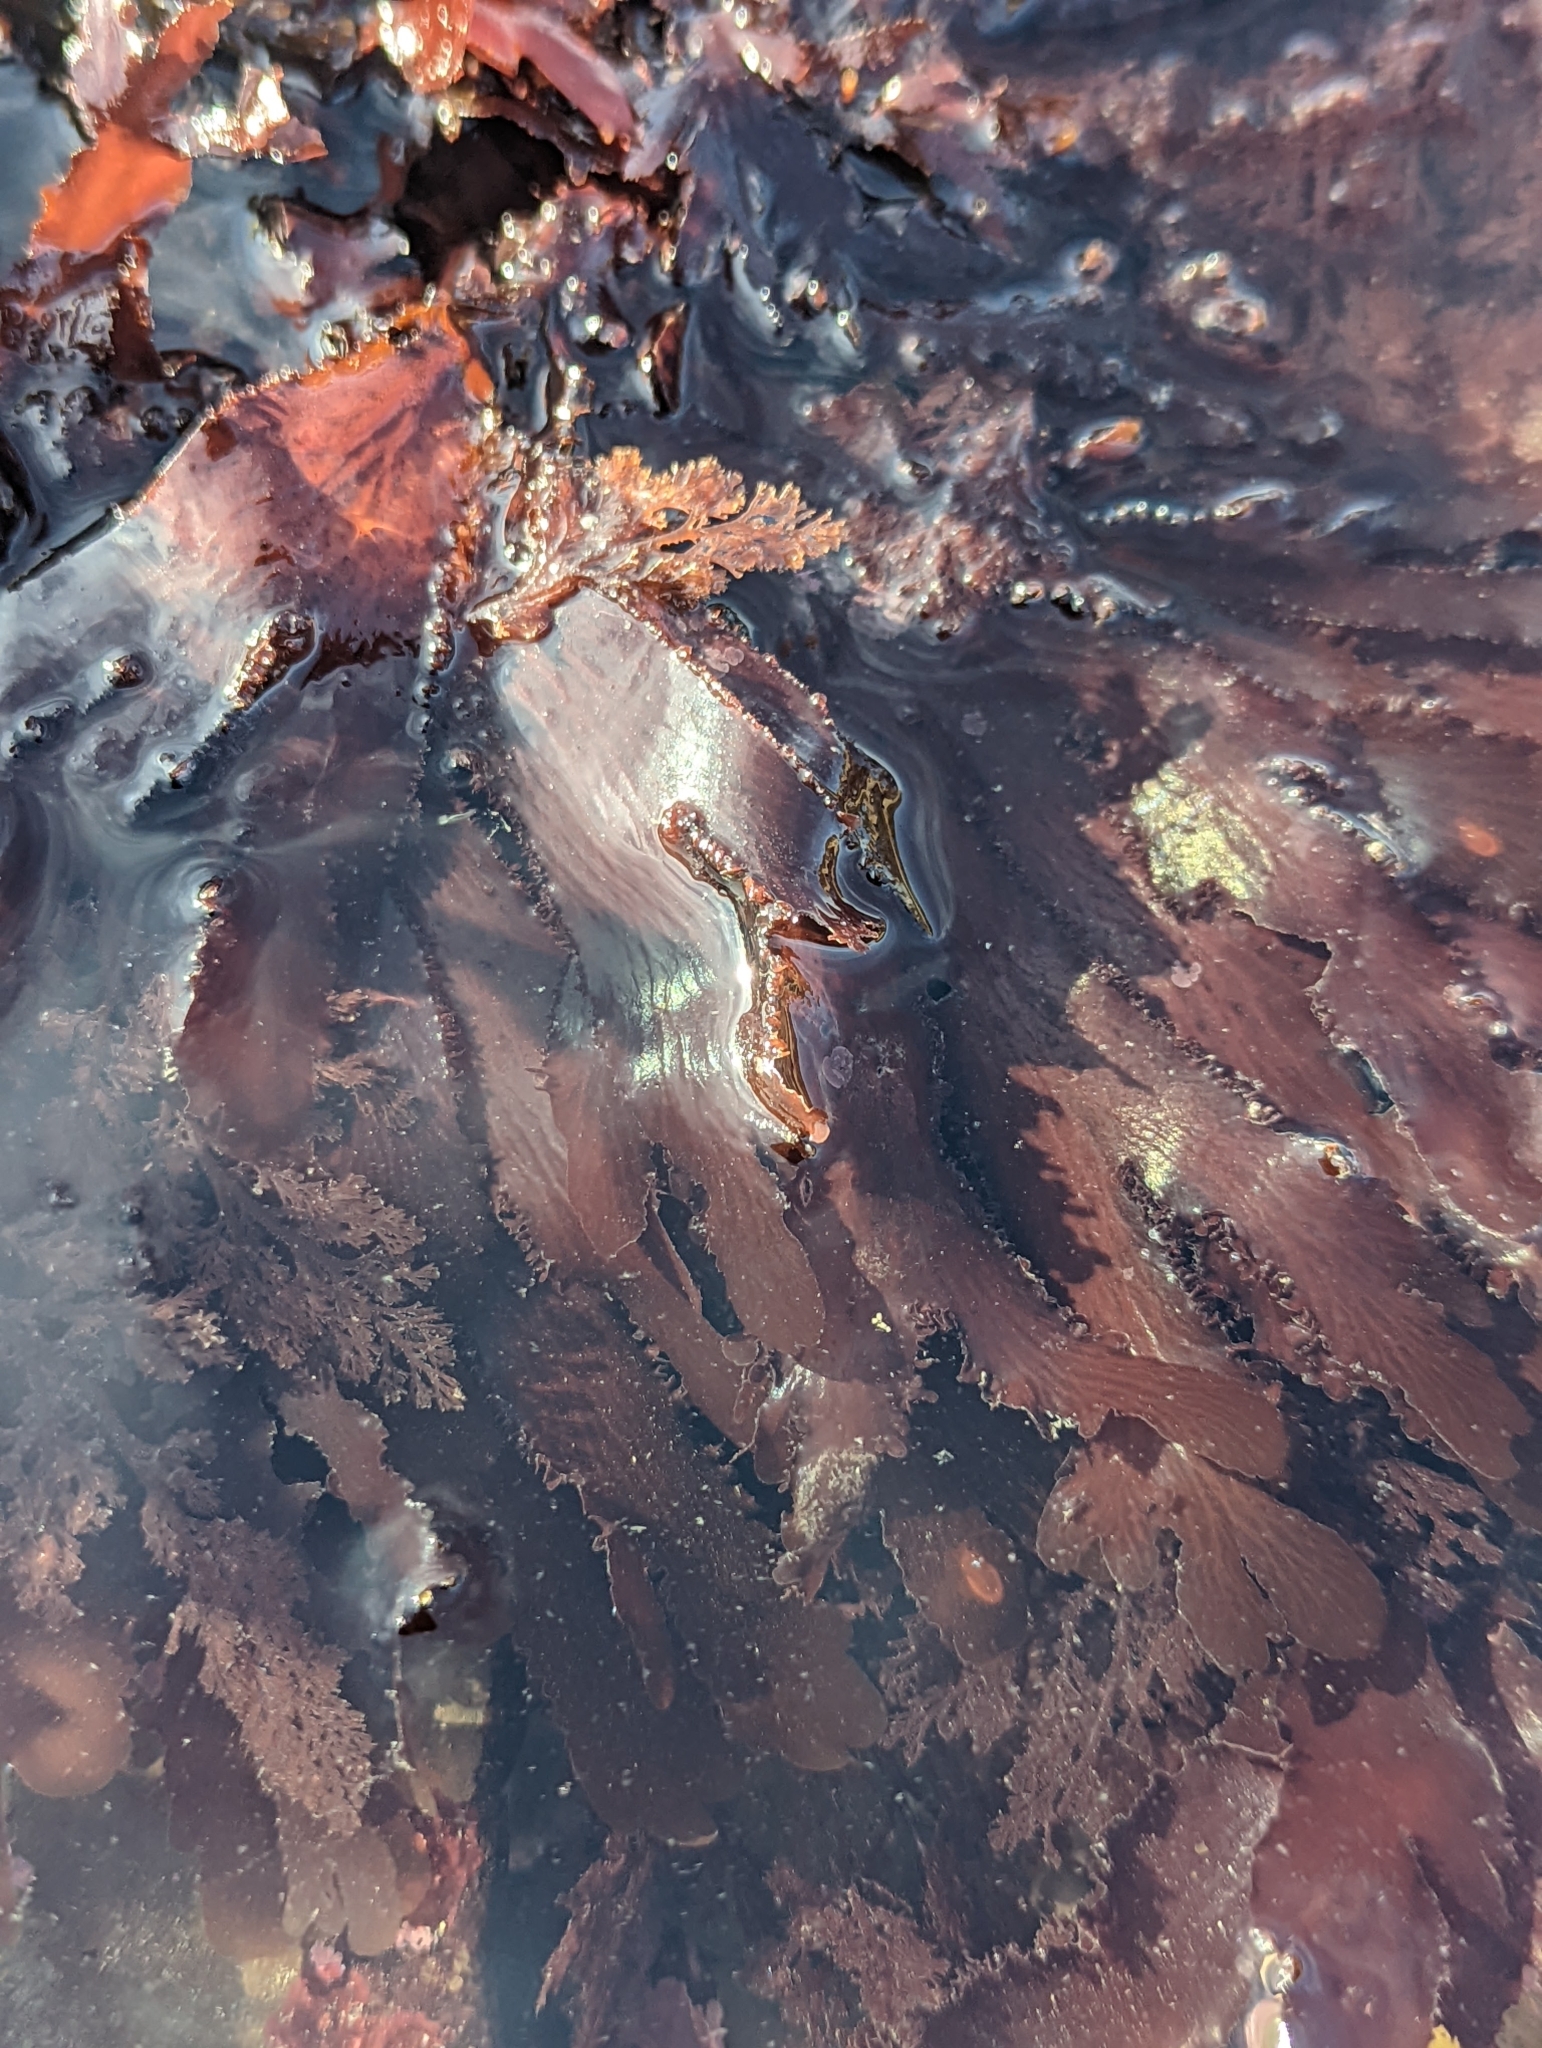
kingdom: Plantae
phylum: Rhodophyta
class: Florideophyceae
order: Ceramiales
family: Delesseriaceae
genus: Cryptopleura
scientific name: Cryptopleura ruprechtiana
